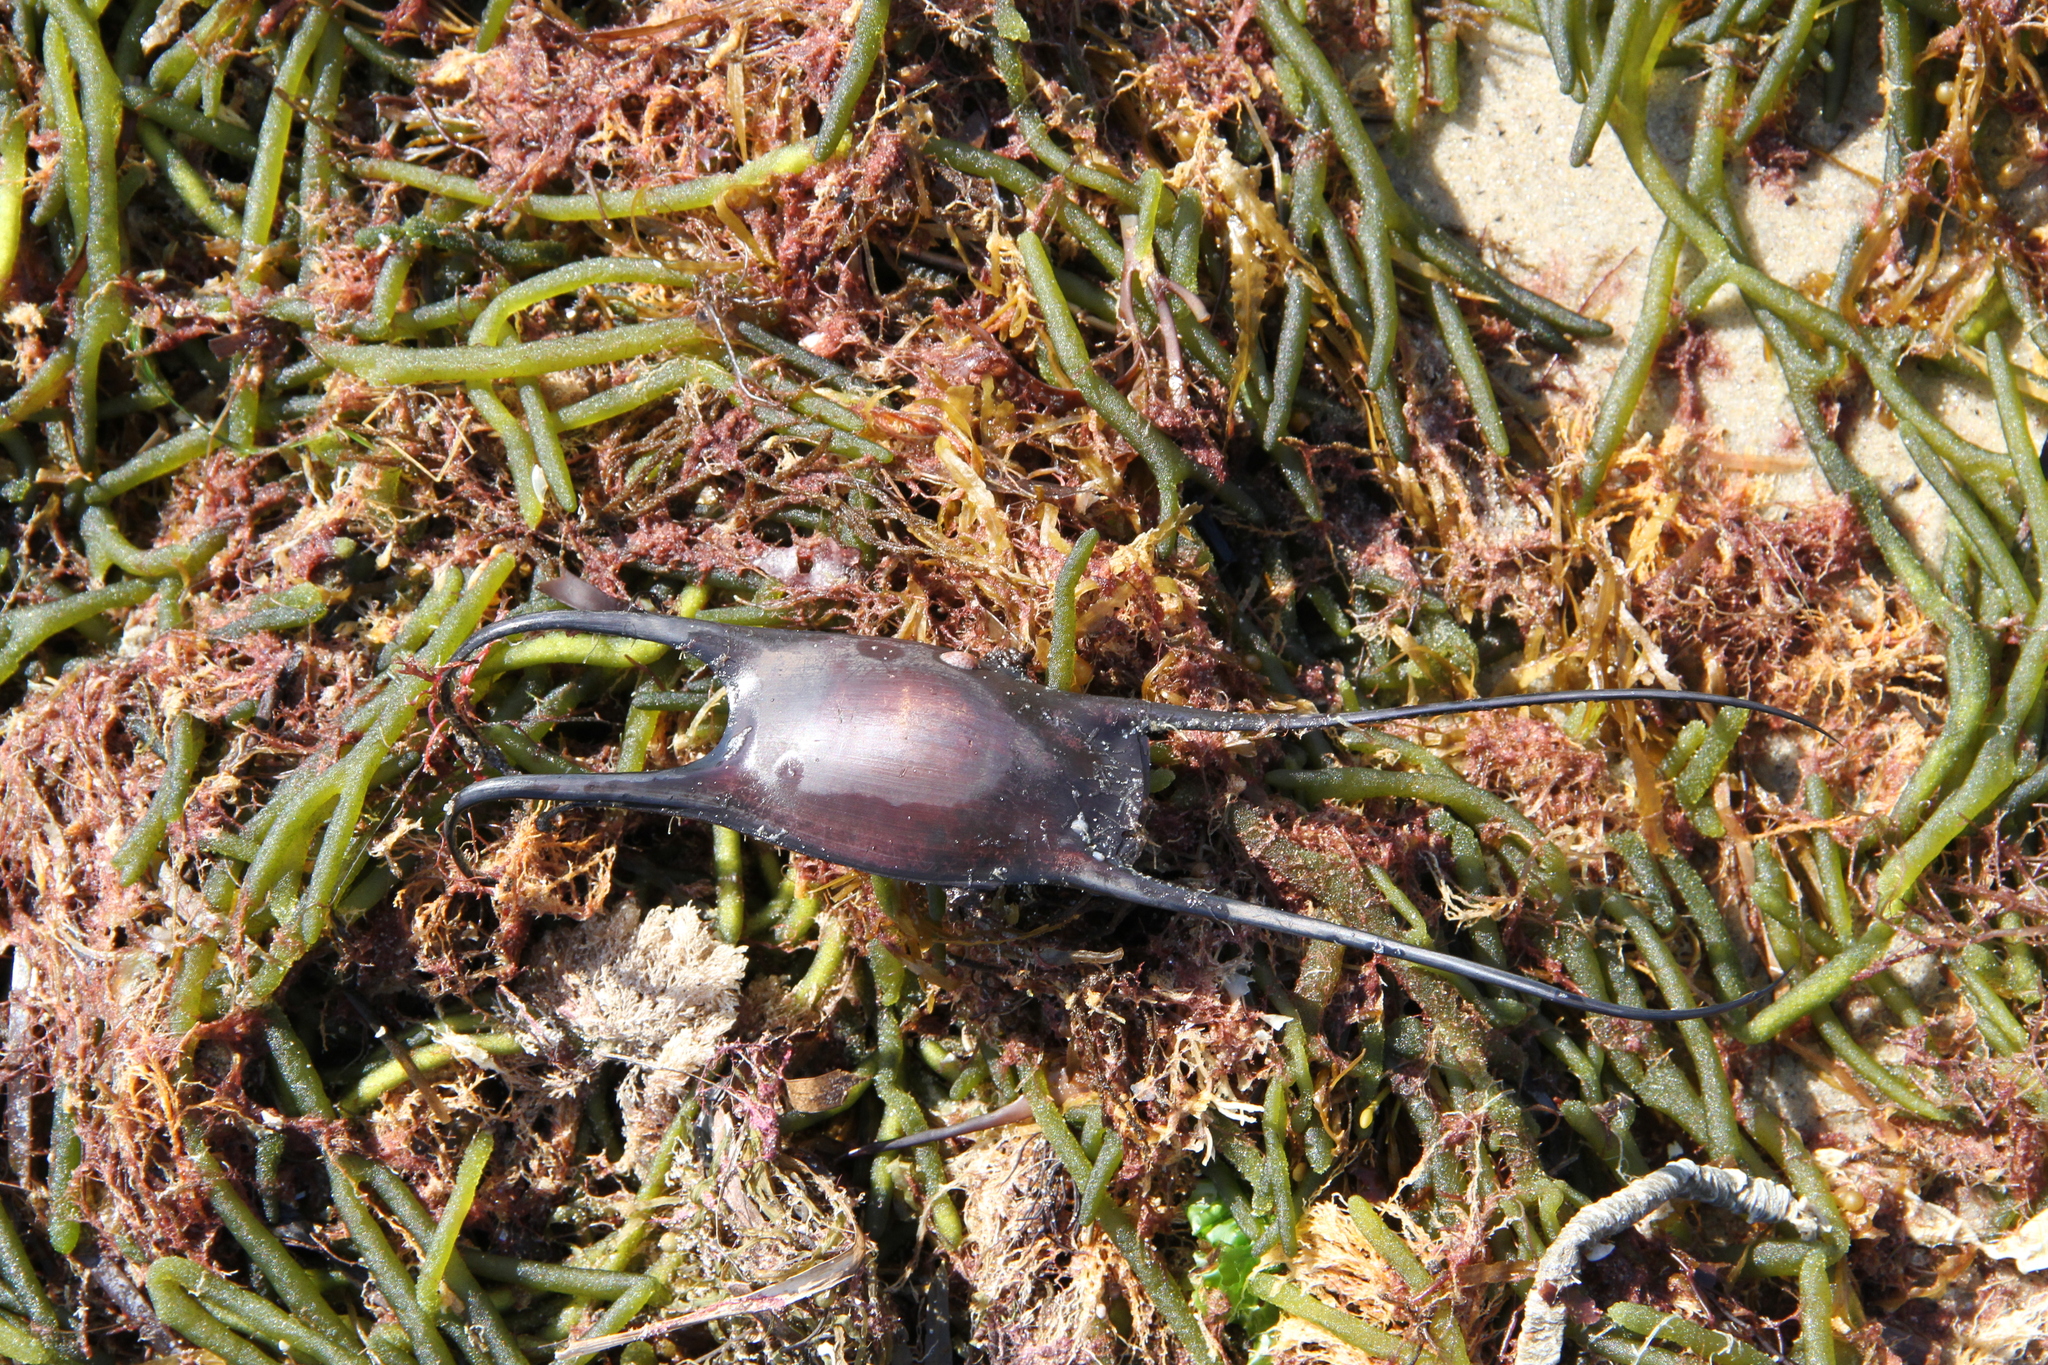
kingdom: Animalia
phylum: Chordata
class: Elasmobranchii
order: Rajiformes
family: Rajidae
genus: Leucoraja
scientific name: Leucoraja erinacea
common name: Little skate
